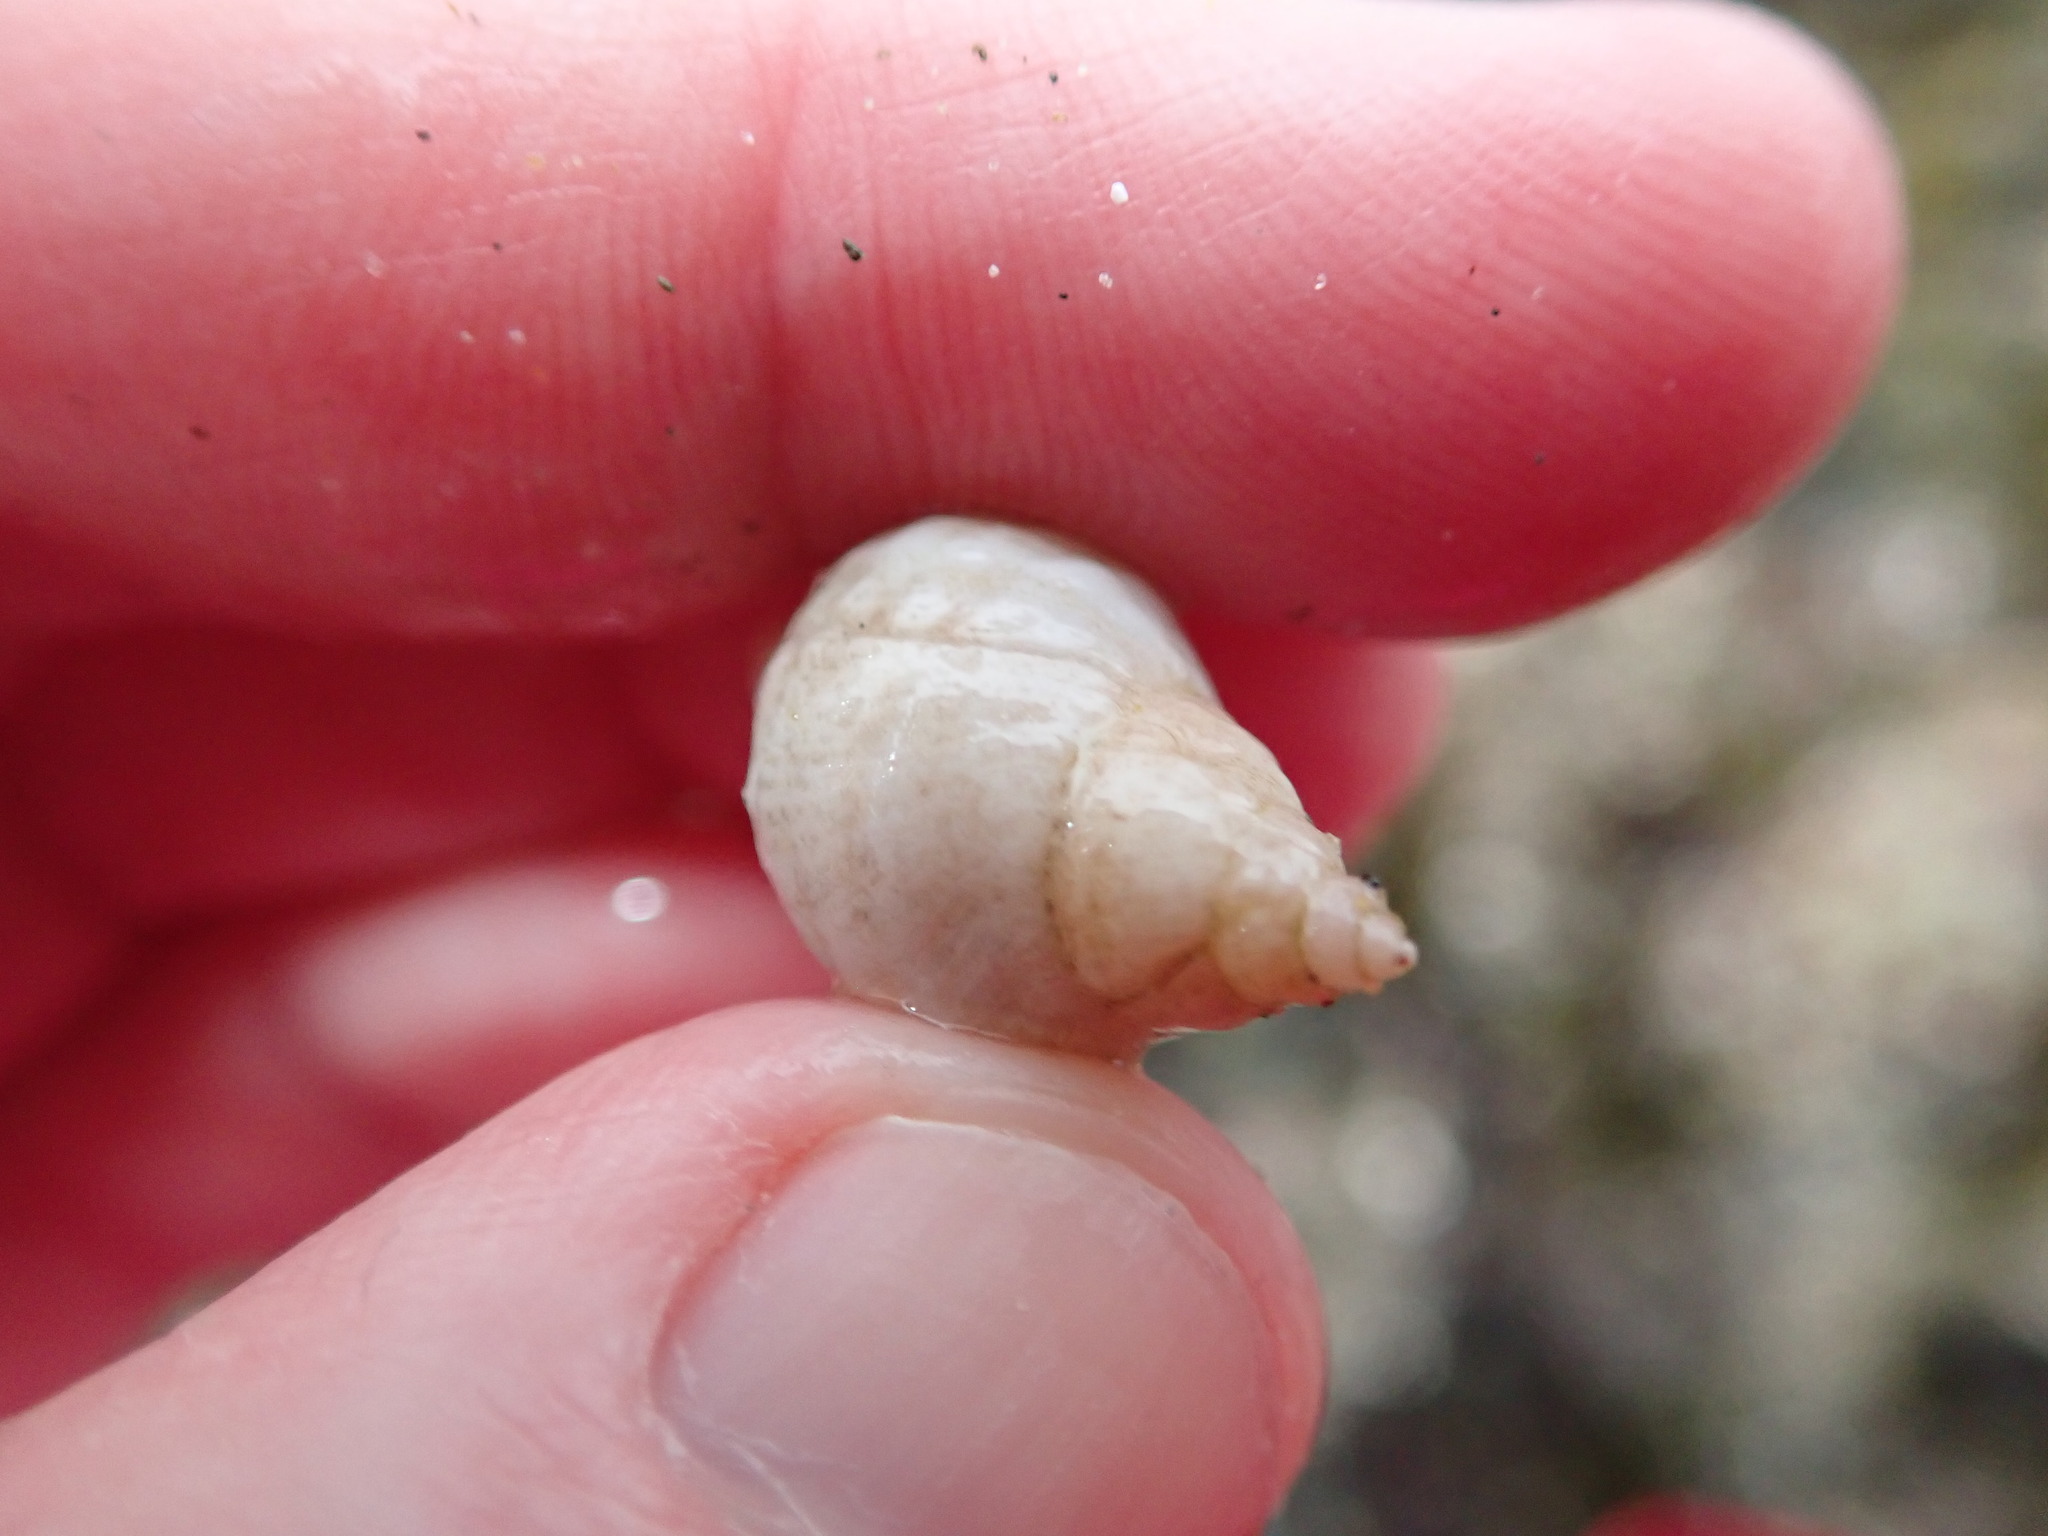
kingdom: Animalia
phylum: Mollusca
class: Gastropoda
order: Neogastropoda
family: Muricidae
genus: Nucella
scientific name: Nucella lapillus
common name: Dog whelk
